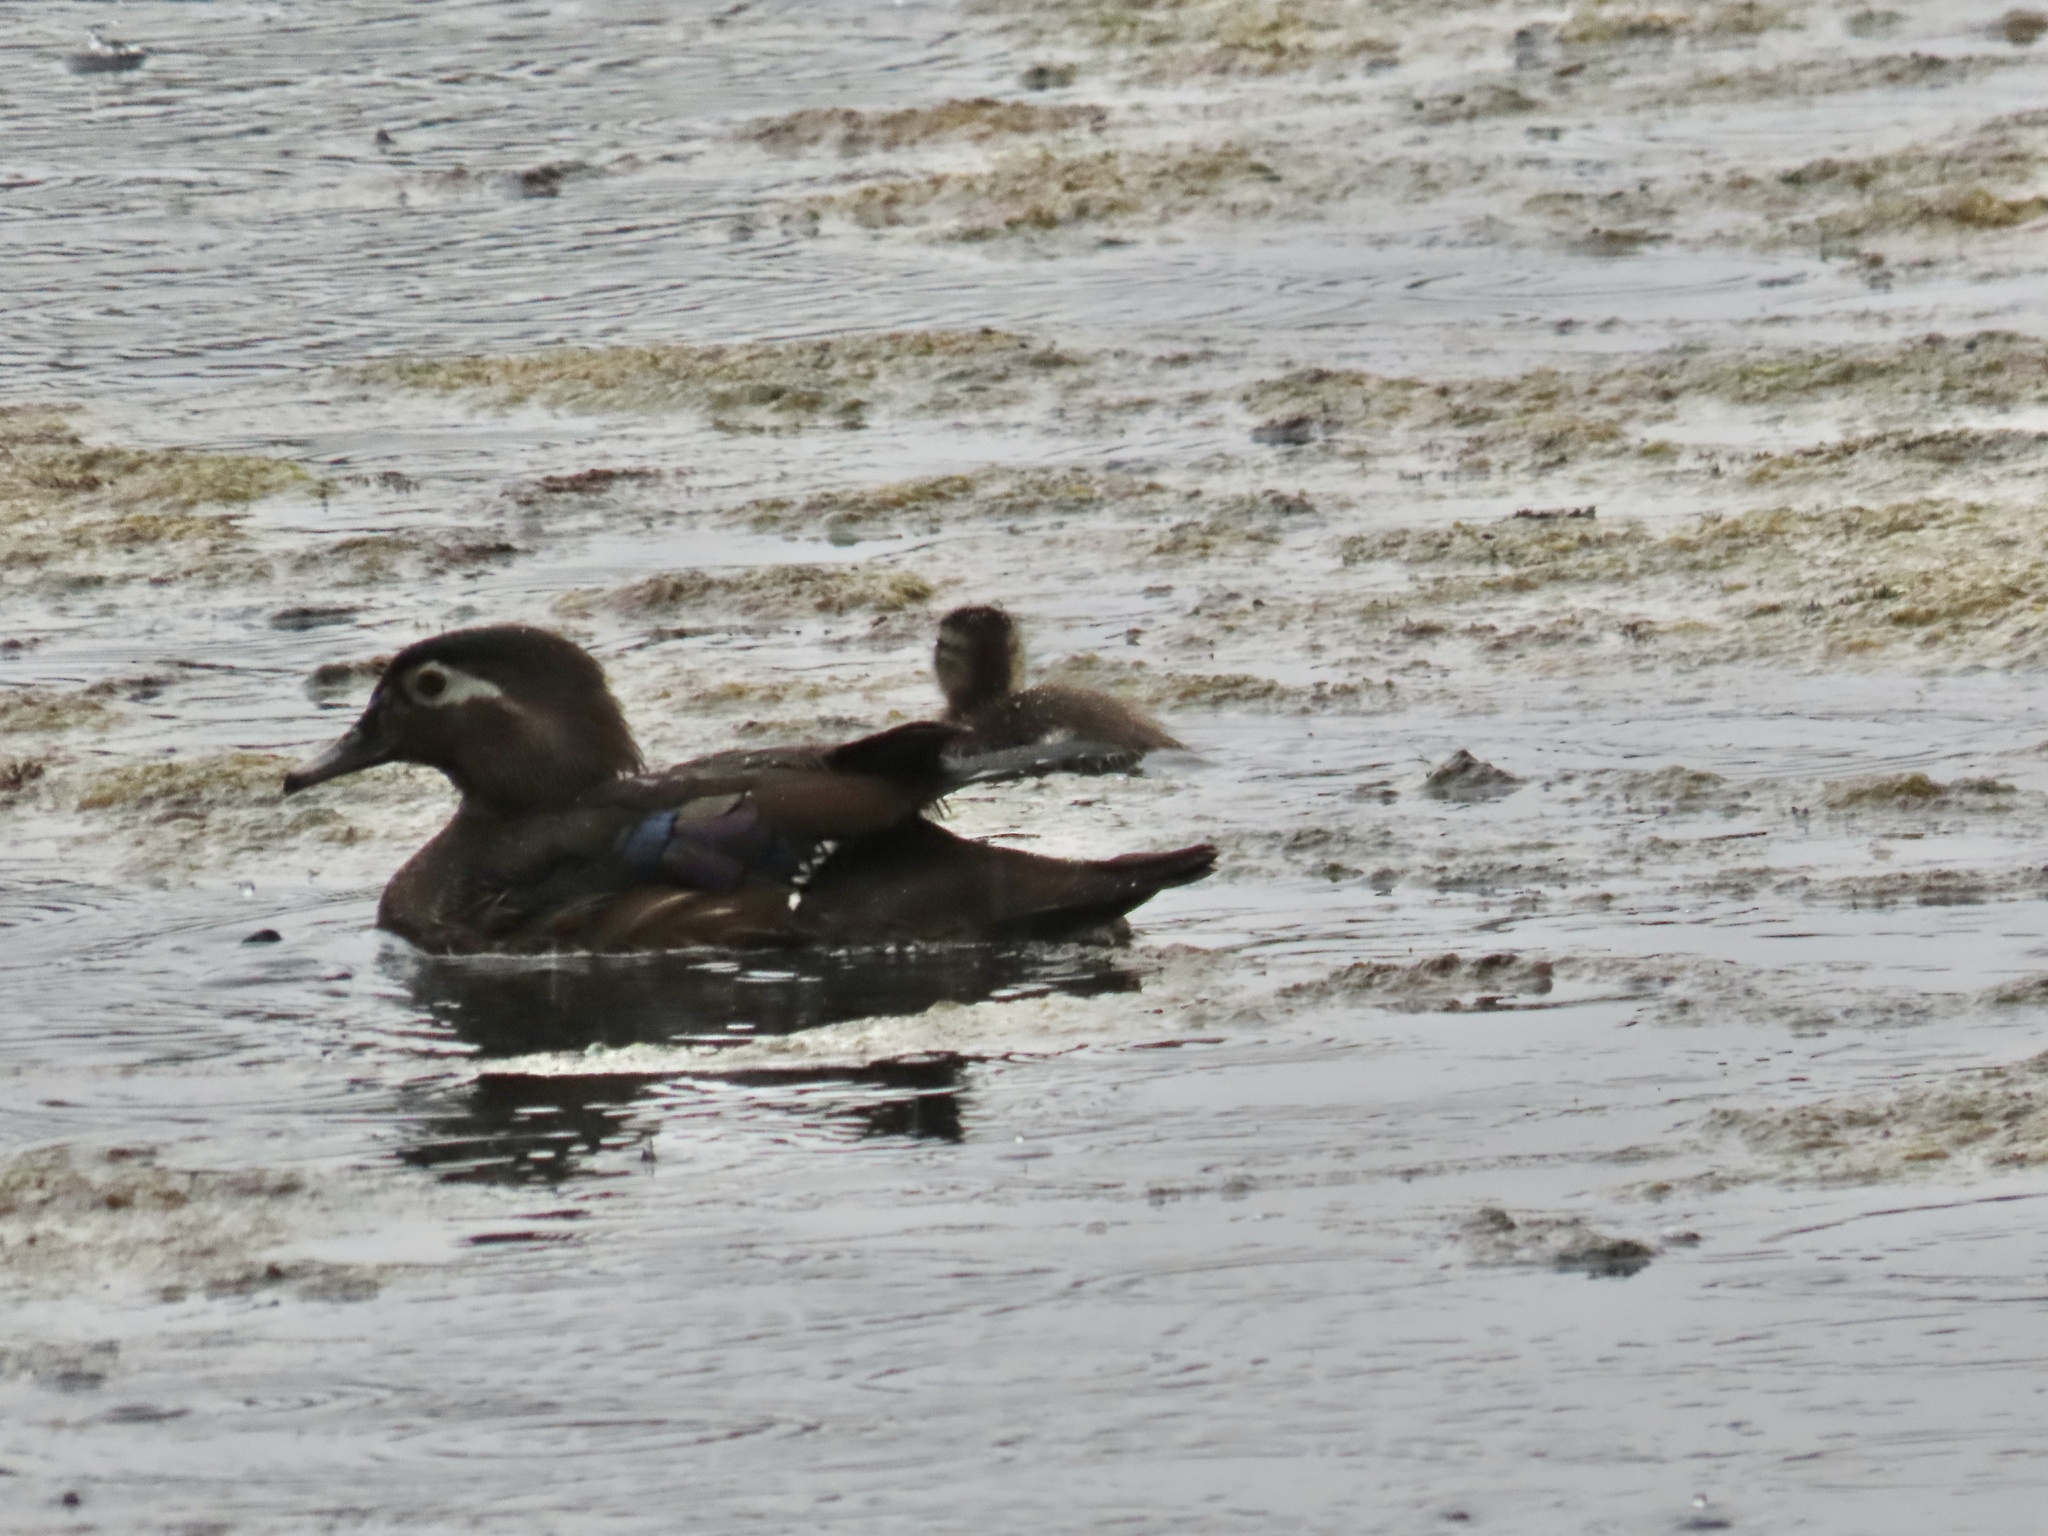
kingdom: Animalia
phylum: Chordata
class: Aves
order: Anseriformes
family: Anatidae
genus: Aix
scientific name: Aix sponsa
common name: Wood duck
